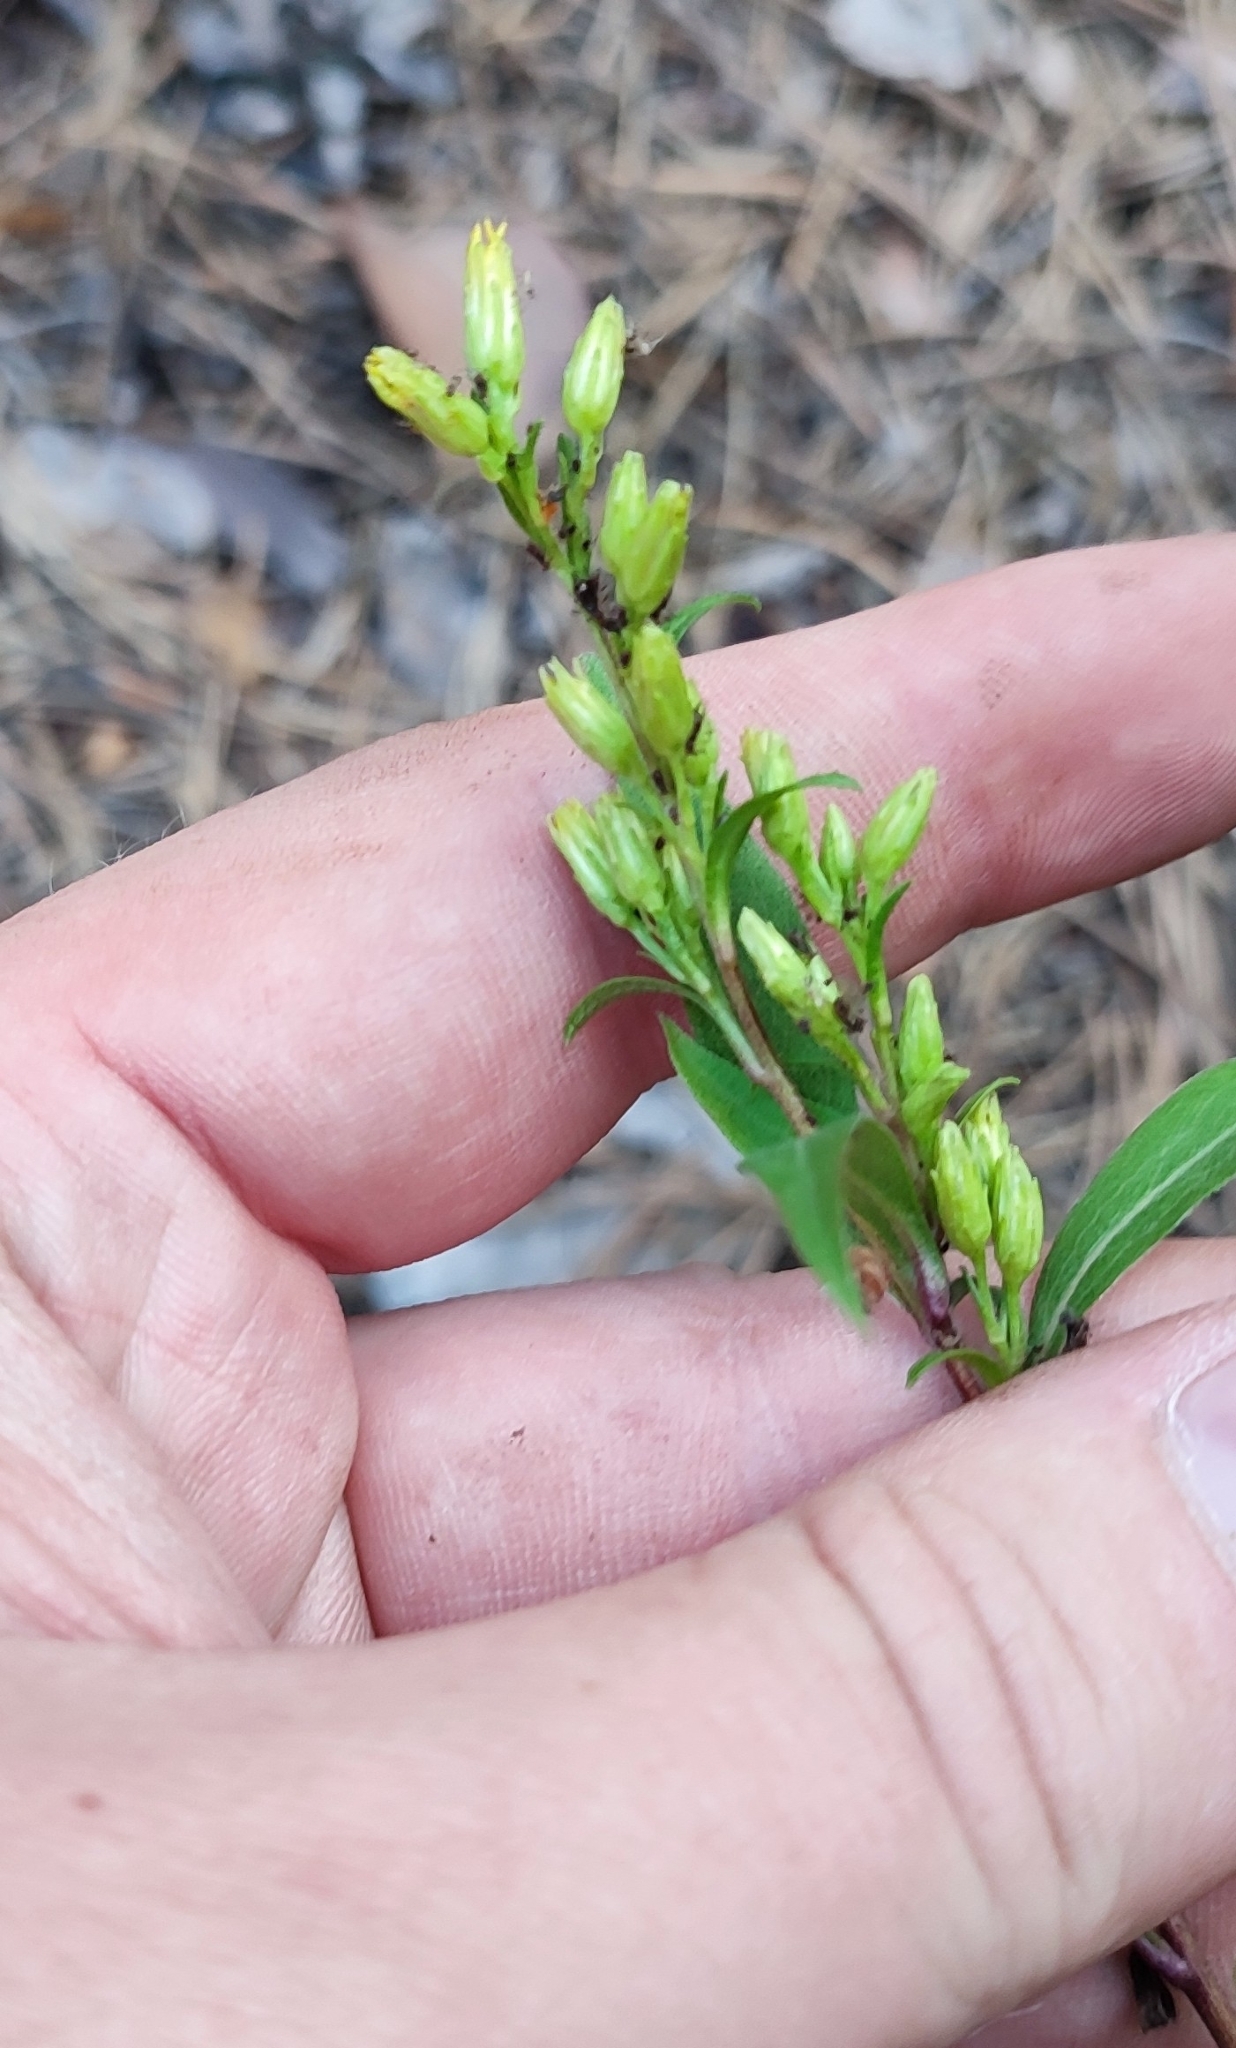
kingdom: Plantae
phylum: Tracheophyta
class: Magnoliopsida
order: Asterales
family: Asteraceae
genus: Solidago
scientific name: Solidago virgaurea
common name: Goldenrod
